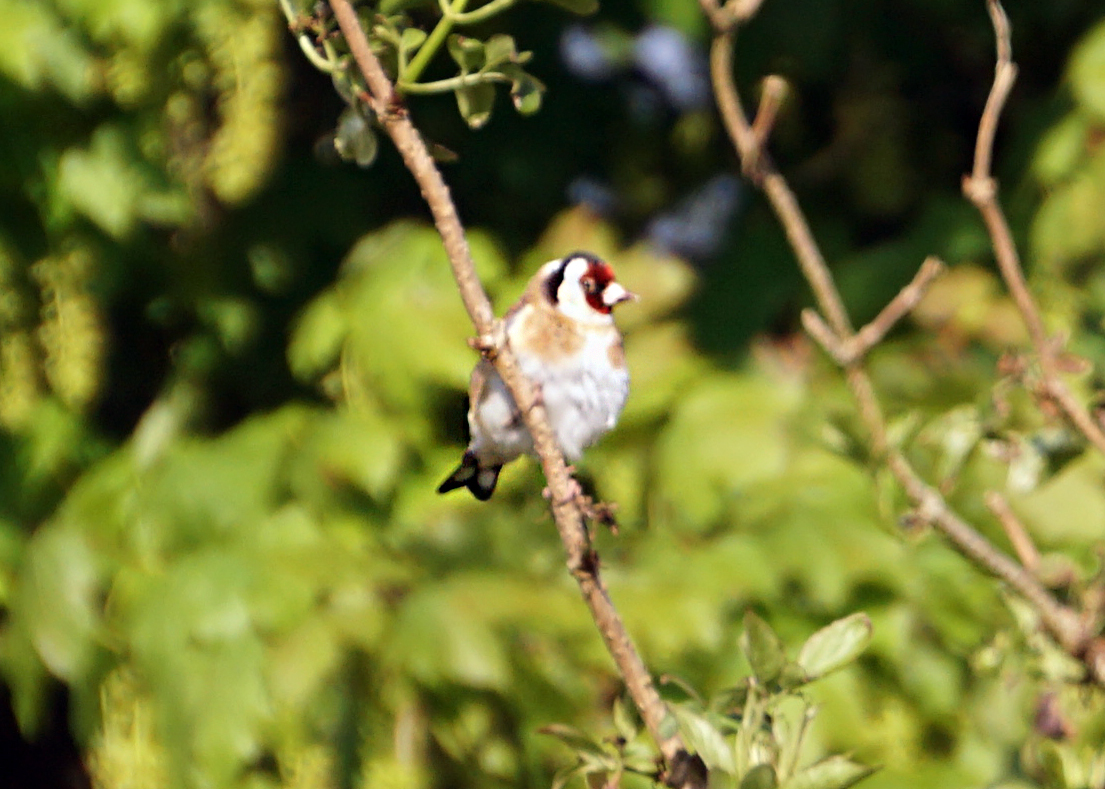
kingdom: Animalia
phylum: Chordata
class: Aves
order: Passeriformes
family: Fringillidae
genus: Carduelis
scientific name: Carduelis carduelis
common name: European goldfinch
